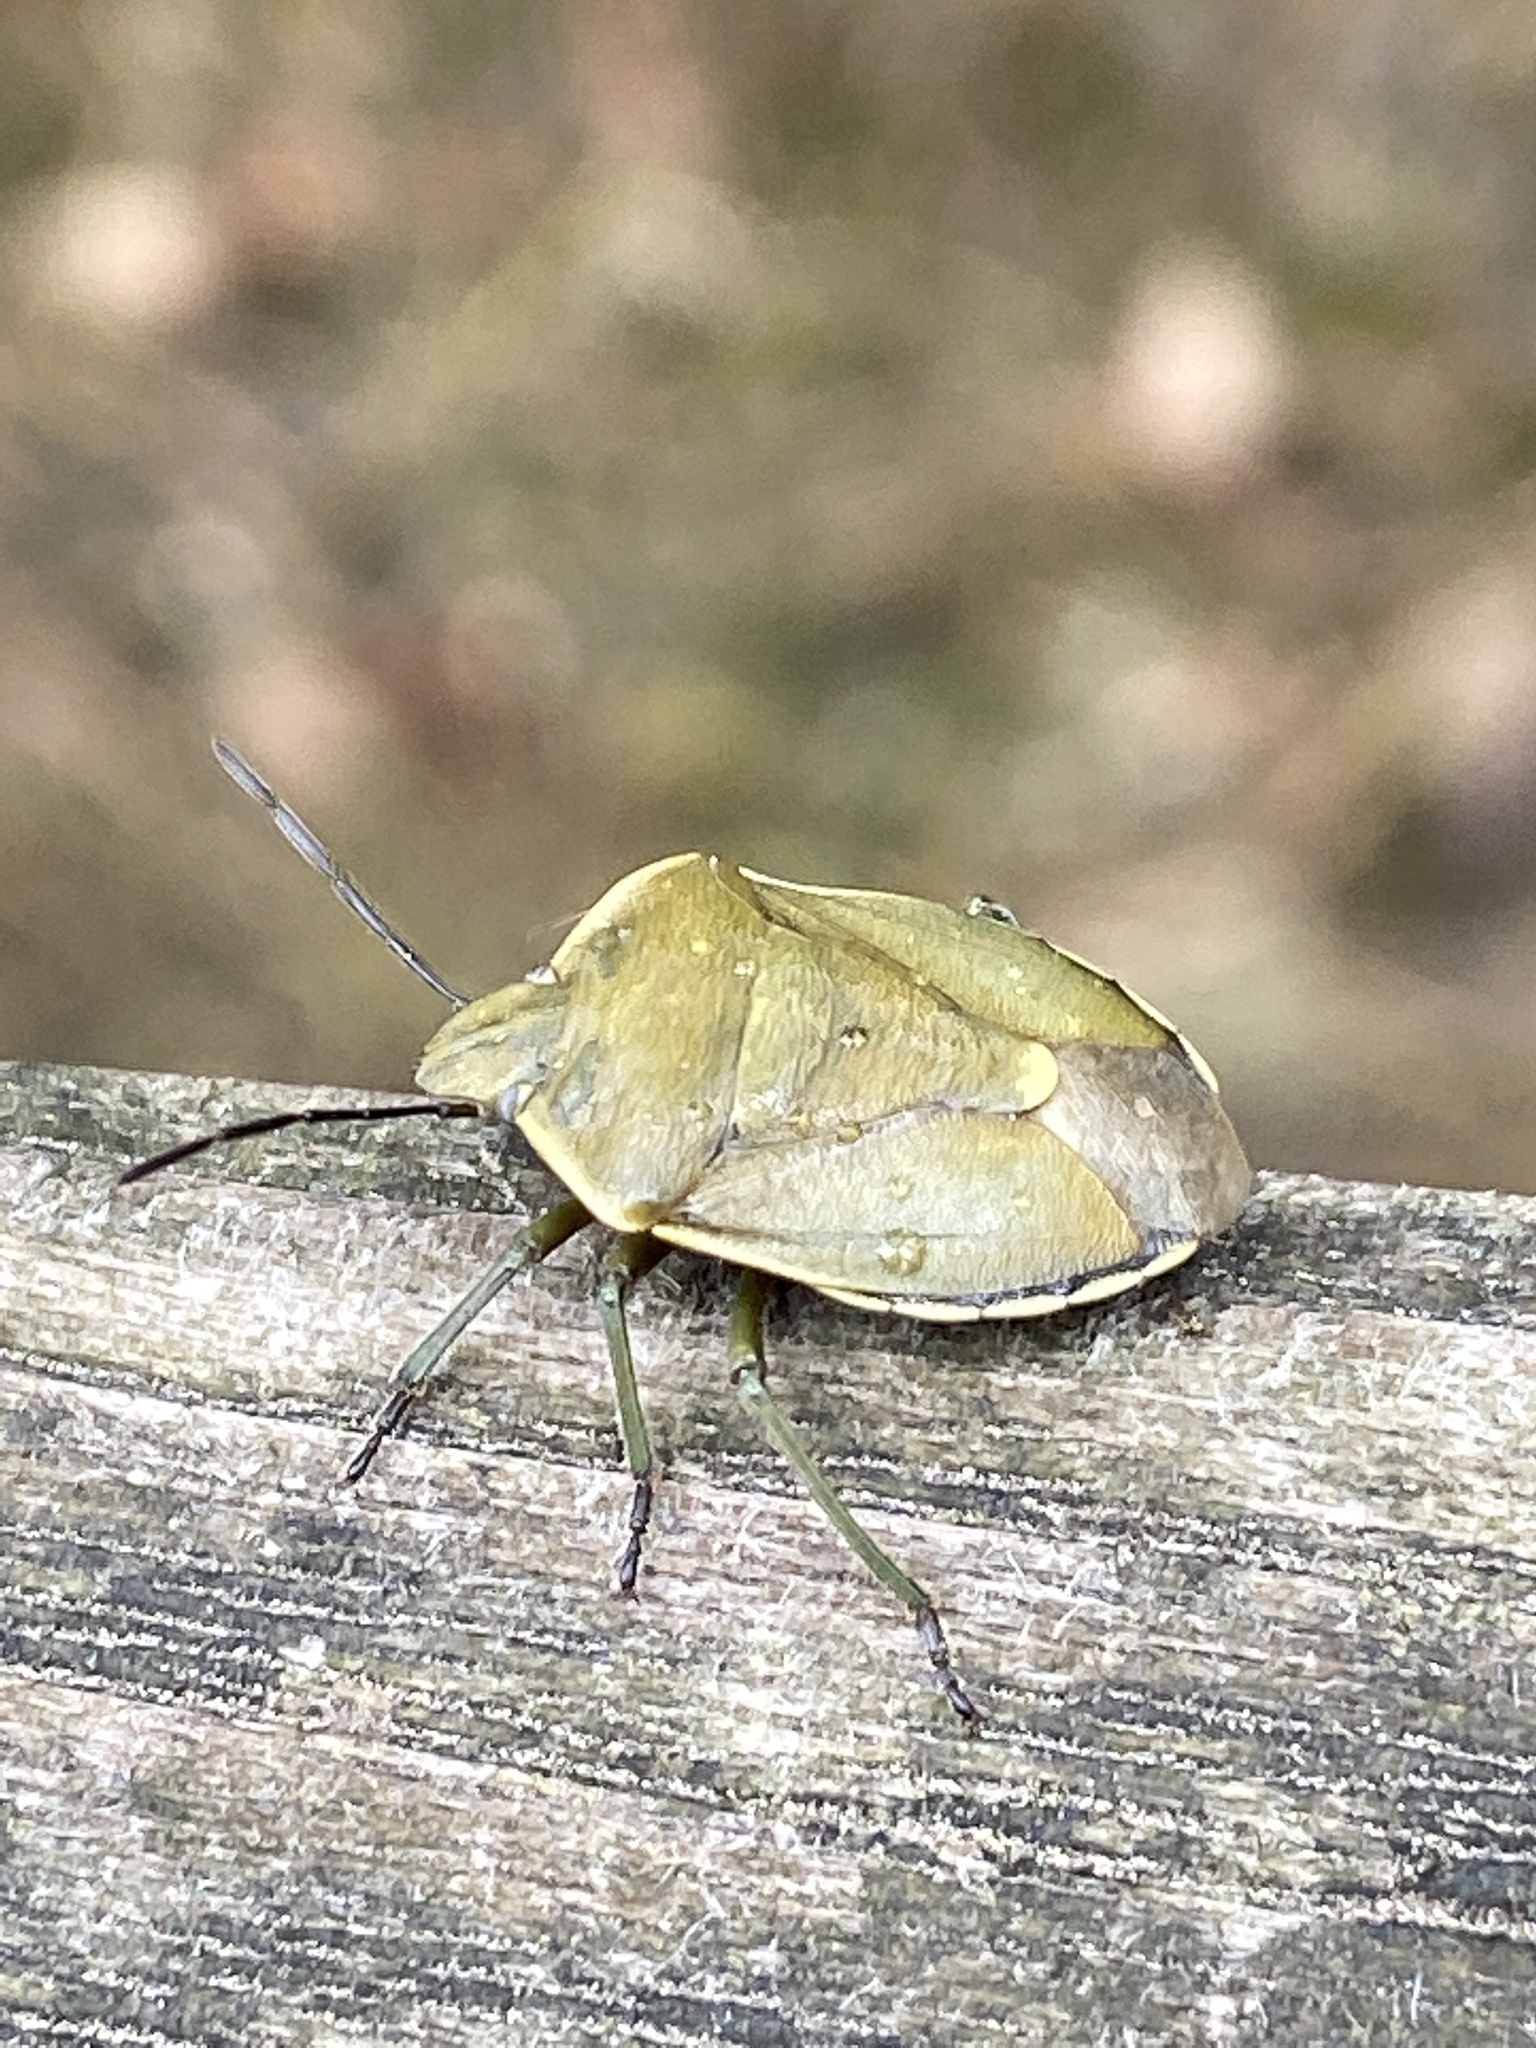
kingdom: Animalia
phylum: Arthropoda
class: Insecta
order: Hemiptera
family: Pentatomidae
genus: Chlorochroa
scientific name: Chlorochroa pinicola
